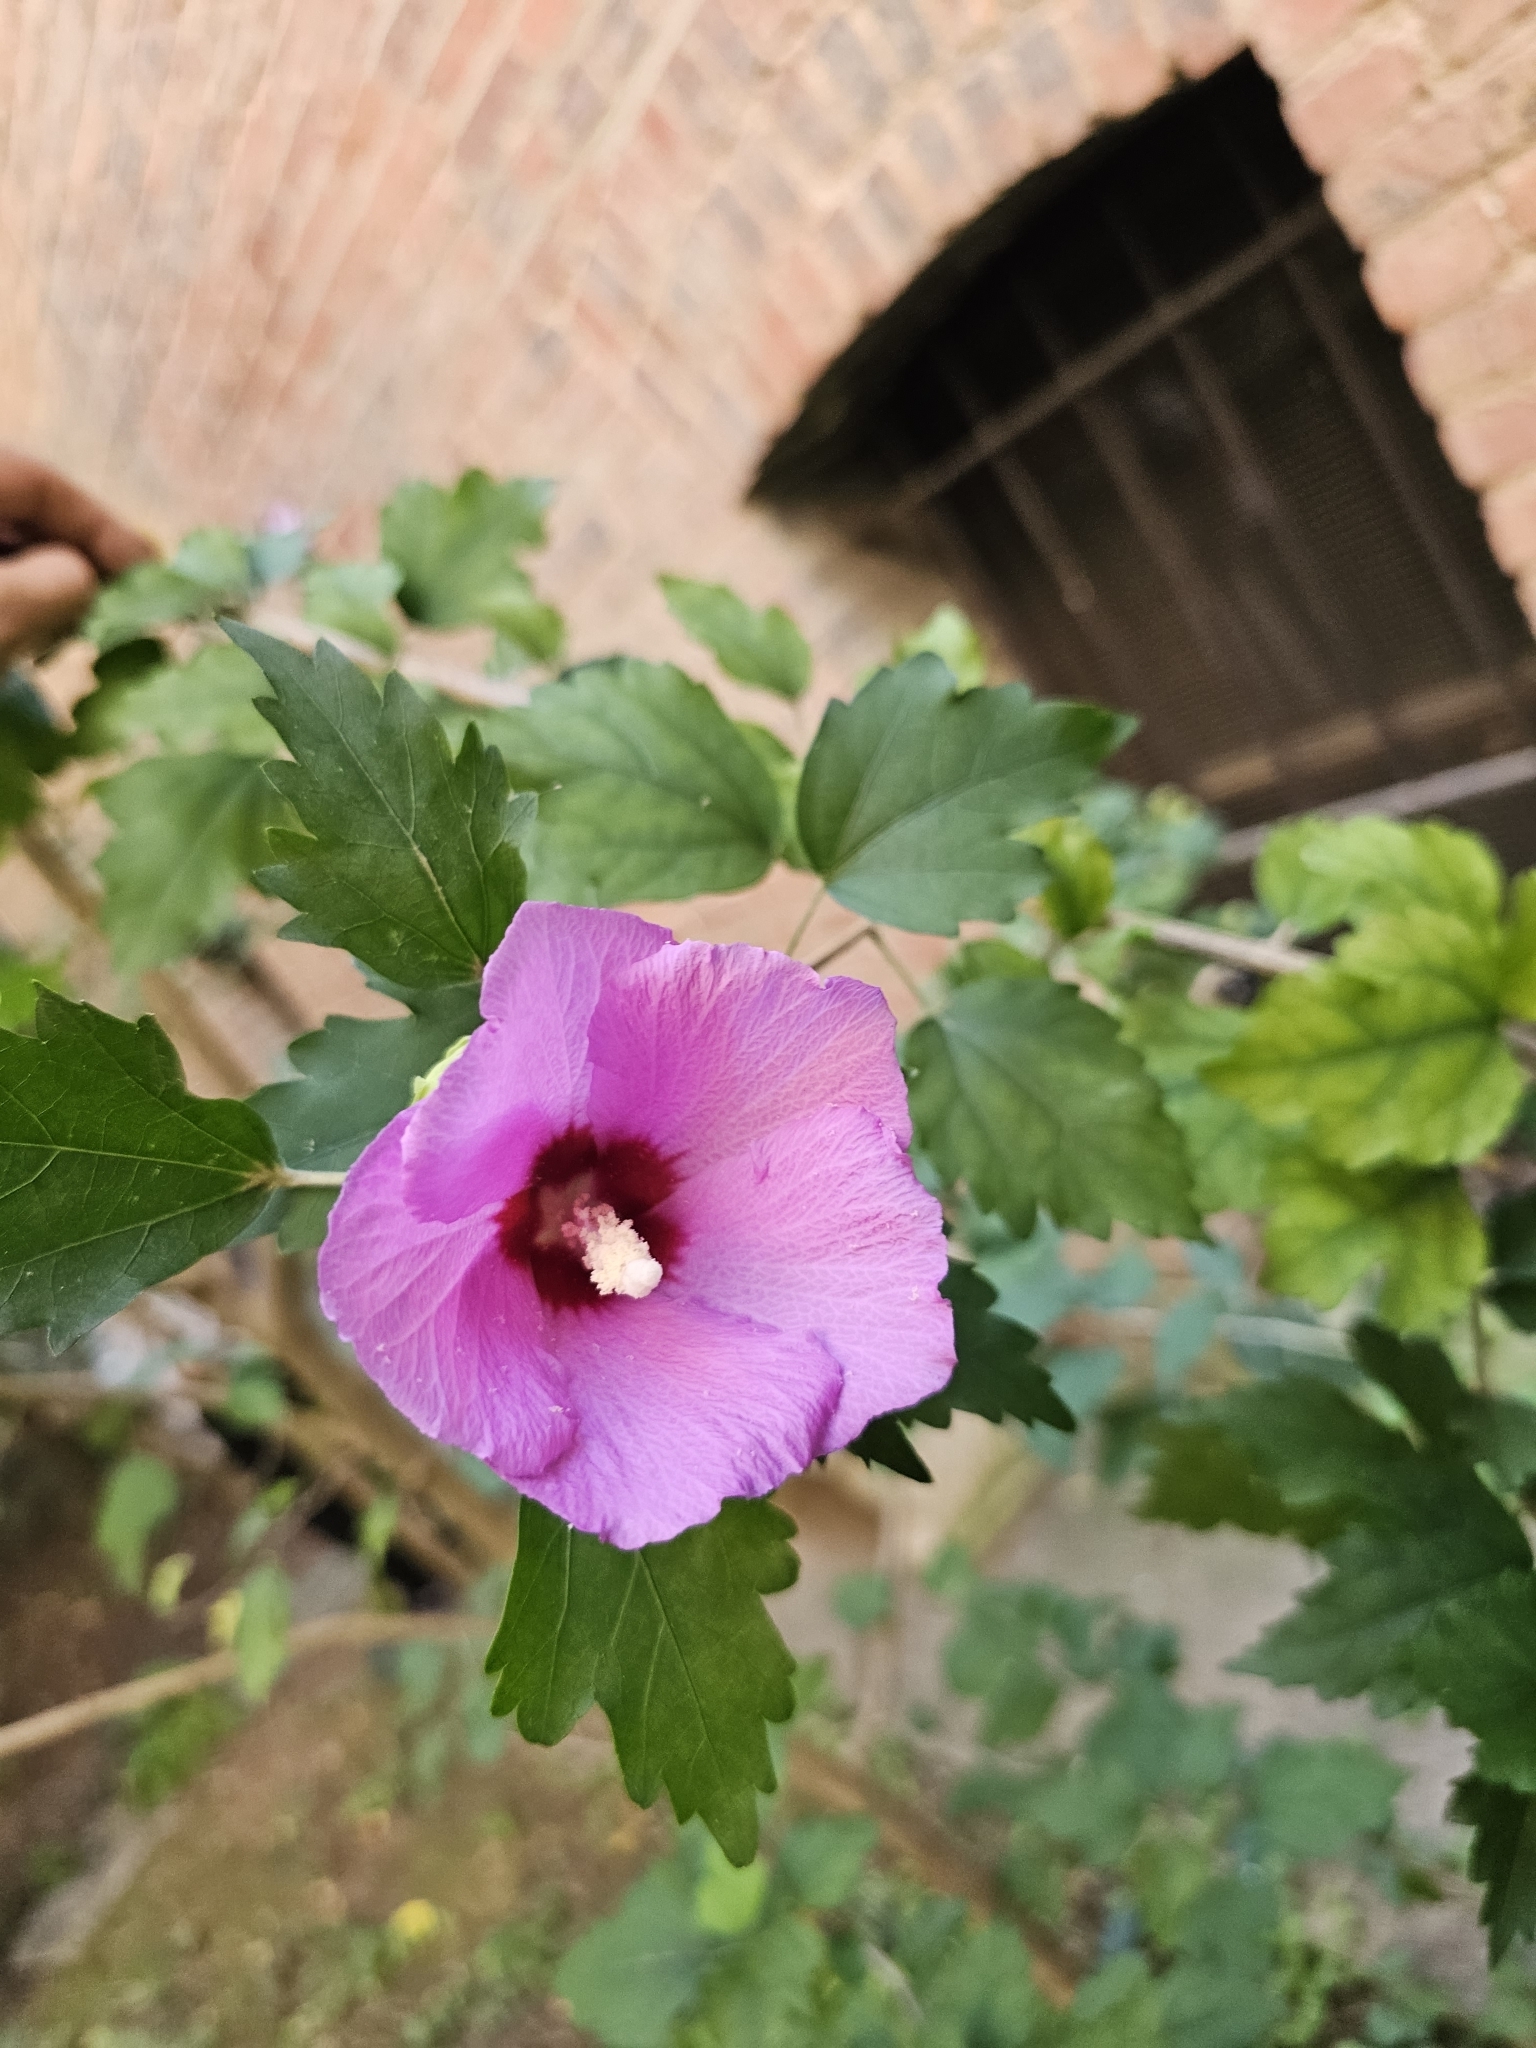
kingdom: Plantae
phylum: Tracheophyta
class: Magnoliopsida
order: Malvales
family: Malvaceae
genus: Hibiscus
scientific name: Hibiscus syriacus
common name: Syrian ketmia
